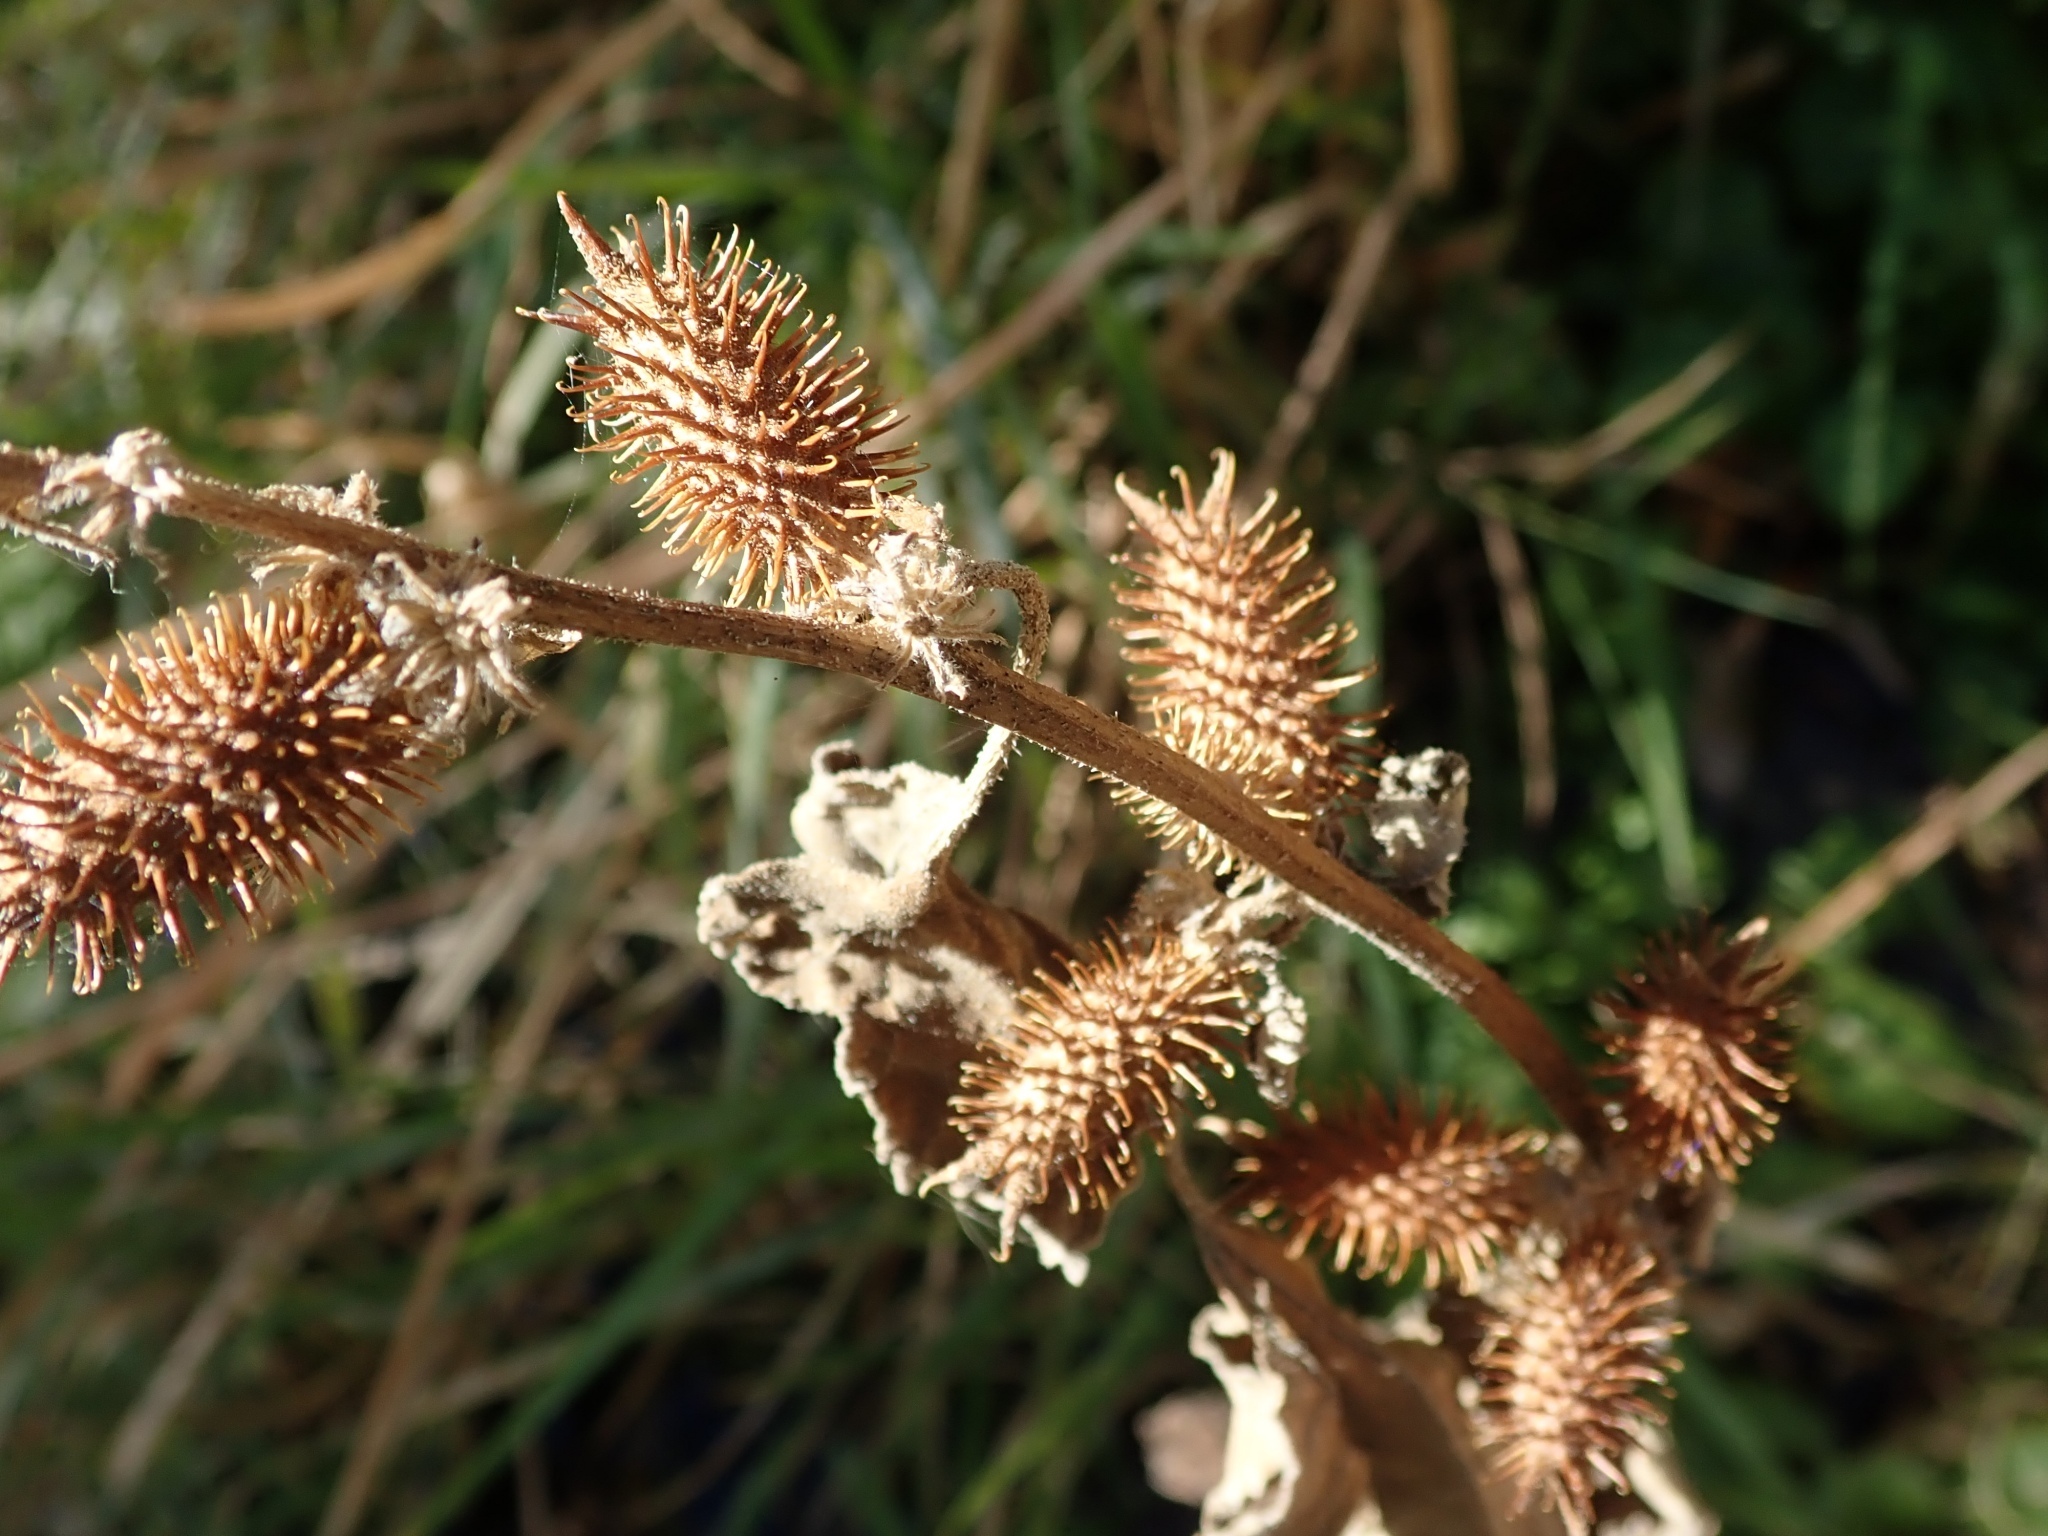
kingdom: Plantae
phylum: Tracheophyta
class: Magnoliopsida
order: Asterales
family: Asteraceae
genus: Xanthium
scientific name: Xanthium orientale
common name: Californian burr
